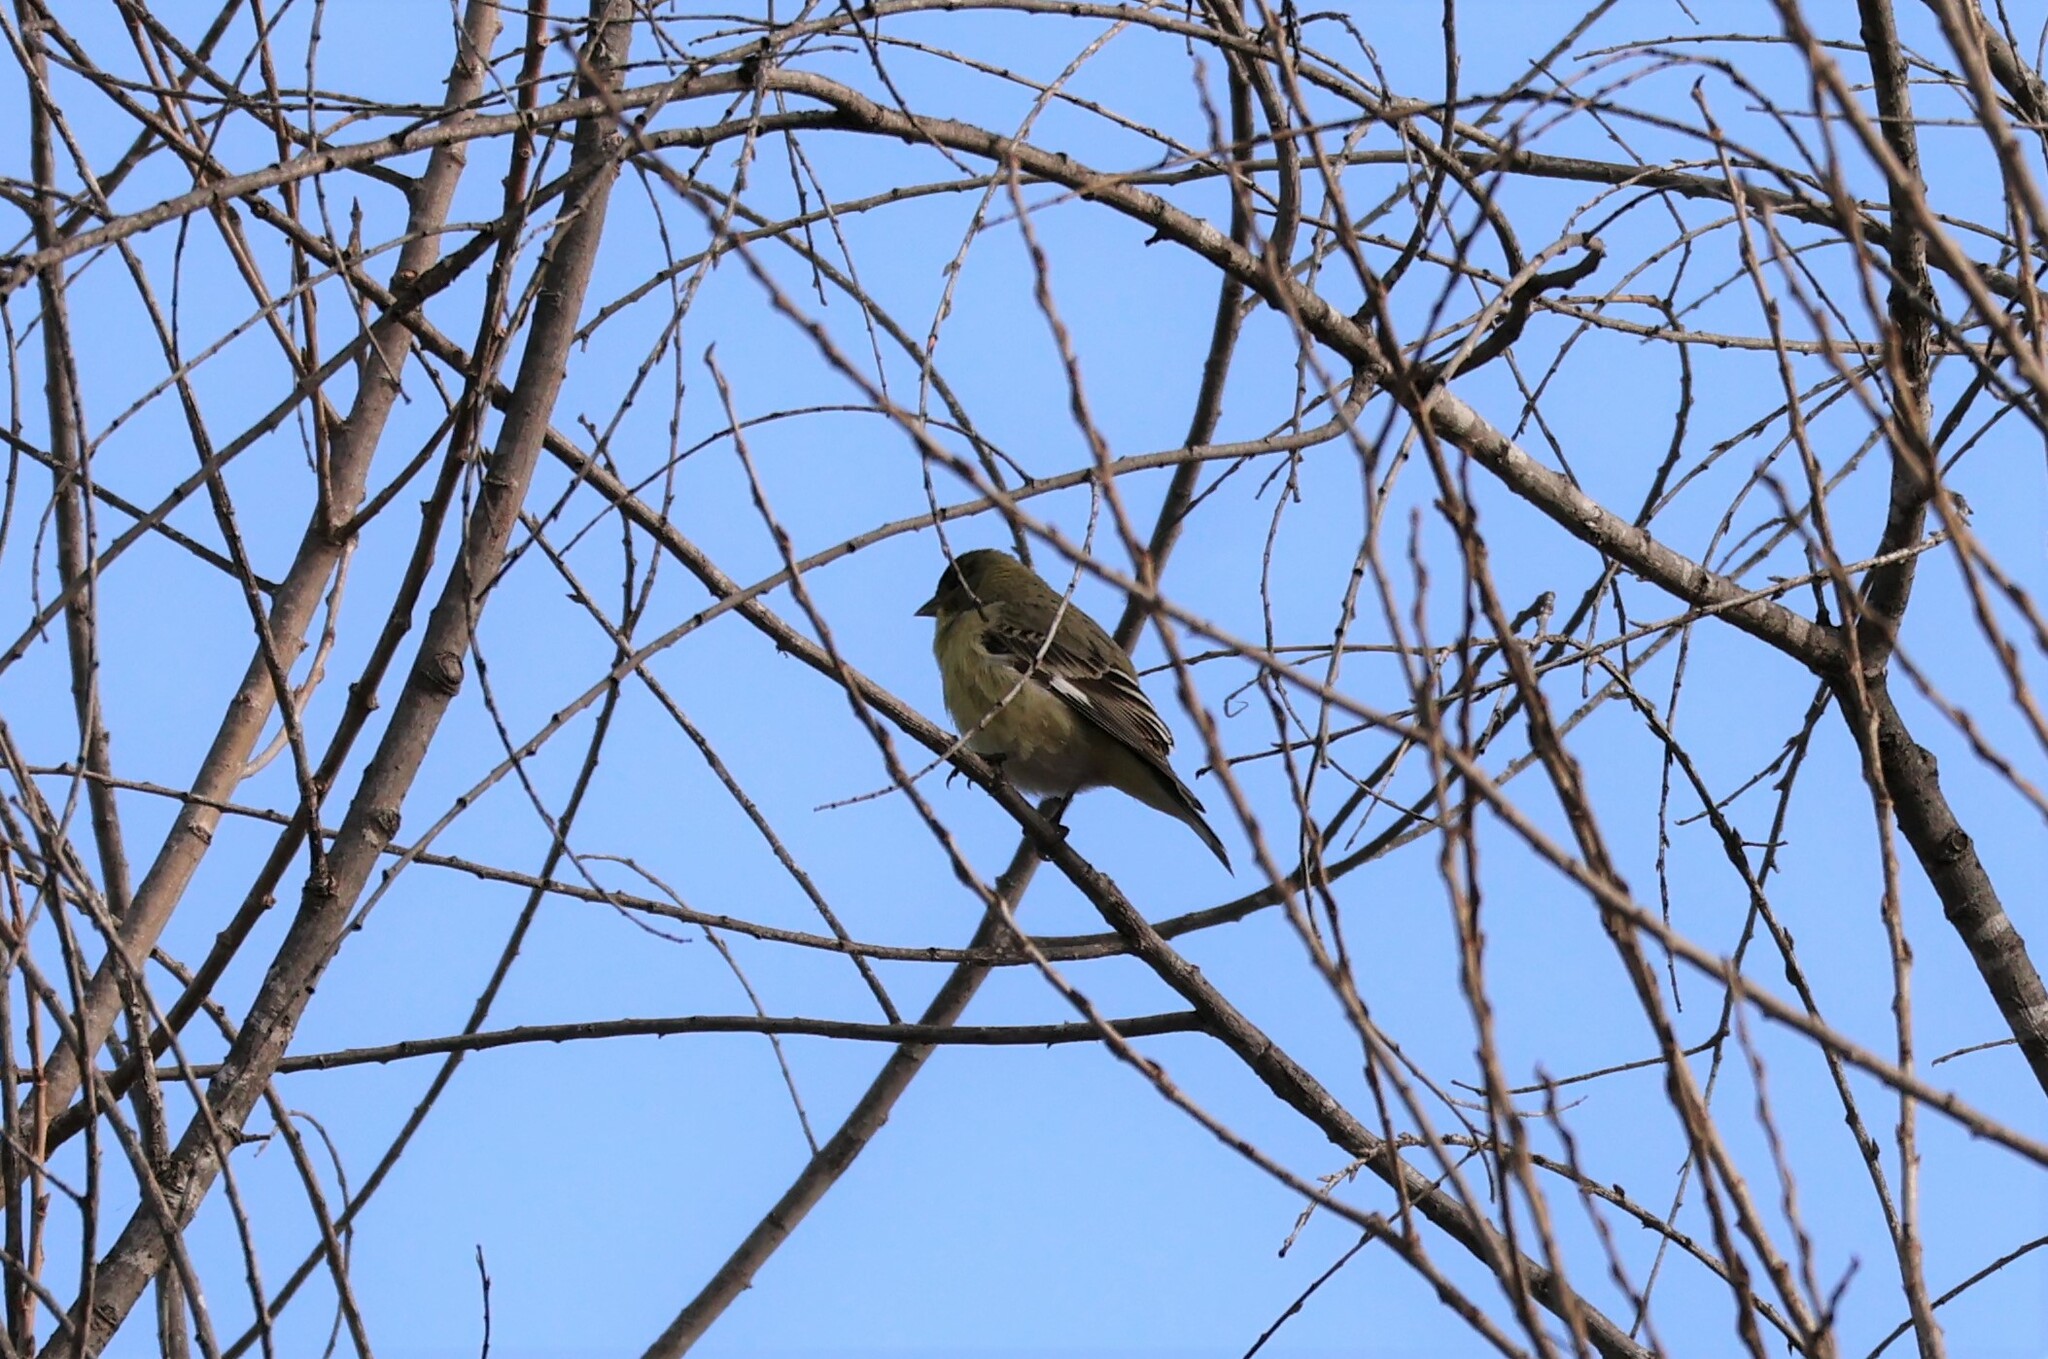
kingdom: Animalia
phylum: Chordata
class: Aves
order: Passeriformes
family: Fringillidae
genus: Spinus
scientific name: Spinus psaltria
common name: Lesser goldfinch
